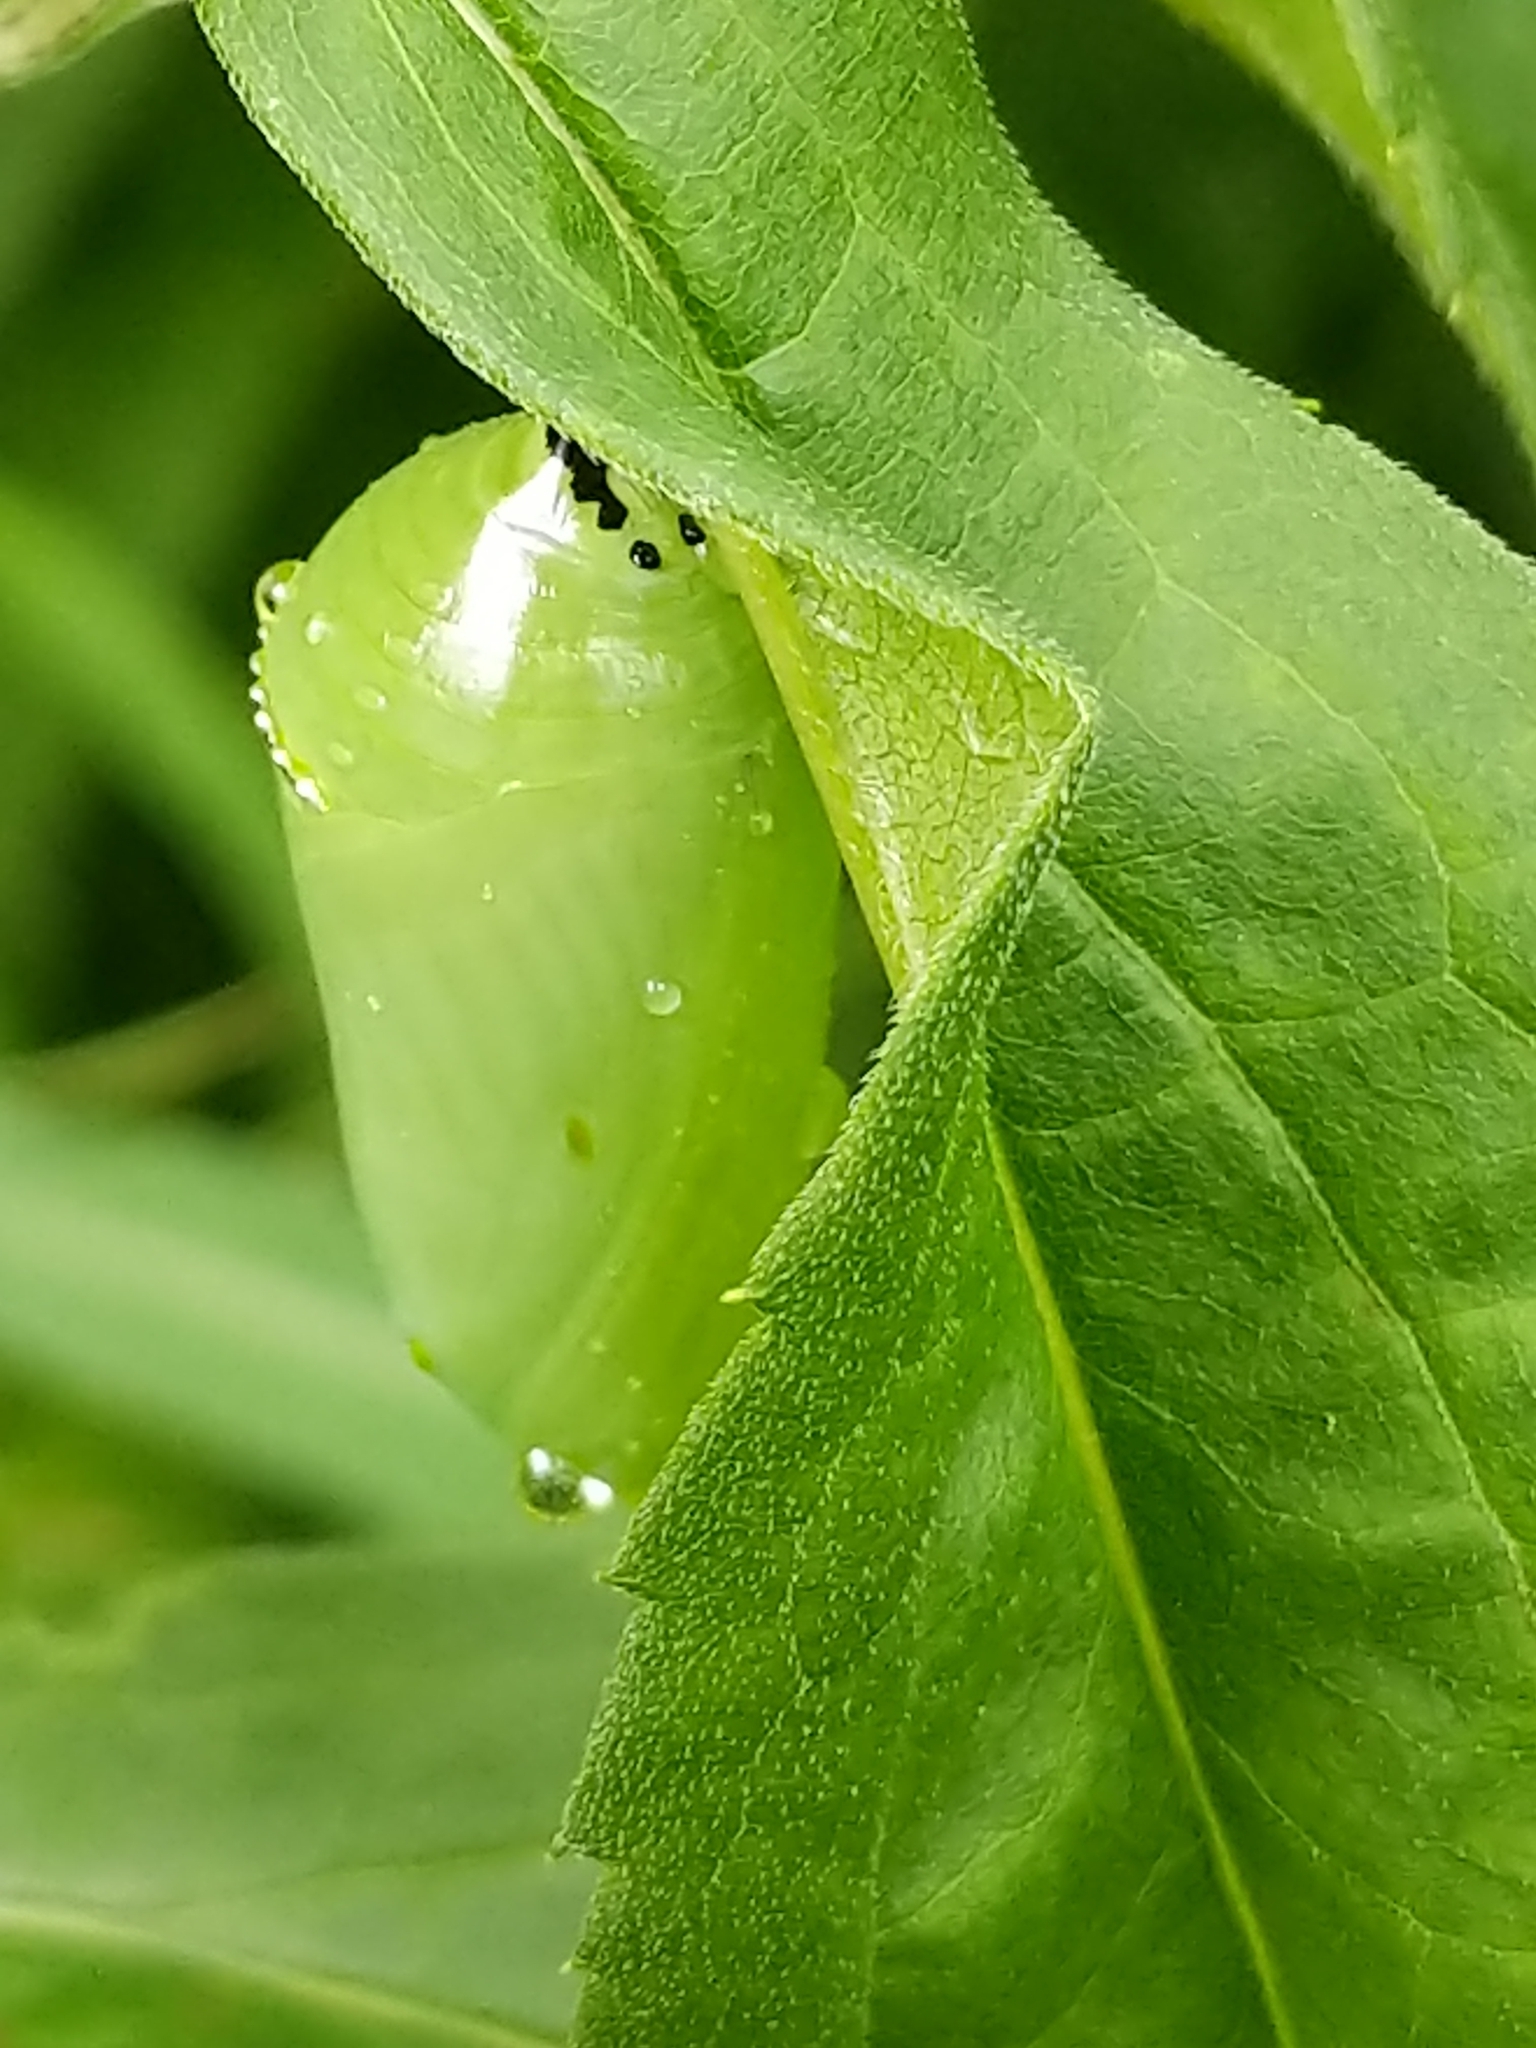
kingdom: Animalia
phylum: Arthropoda
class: Insecta
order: Lepidoptera
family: Nymphalidae
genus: Danaus
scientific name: Danaus plexippus
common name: Monarch
